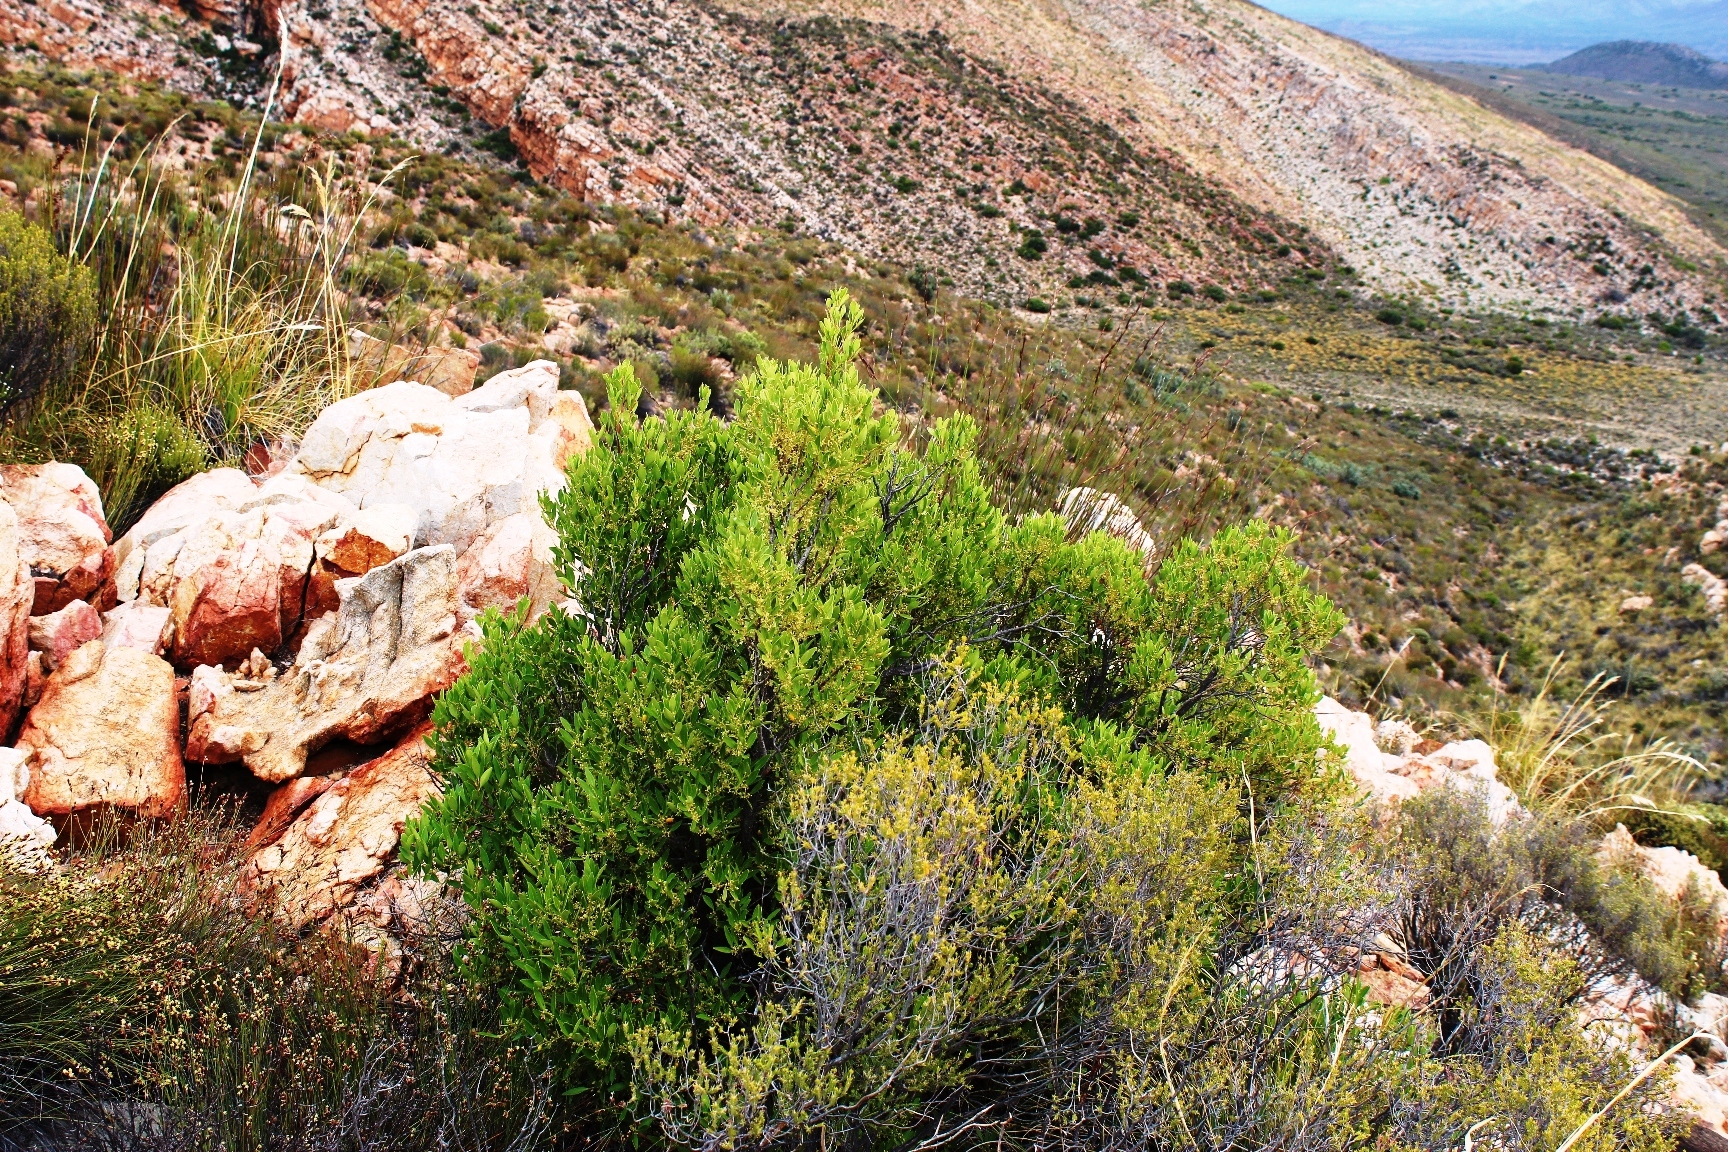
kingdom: Plantae
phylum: Tracheophyta
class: Magnoliopsida
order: Celastrales
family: Celastraceae
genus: Gymnosporia
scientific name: Gymnosporia laurina
